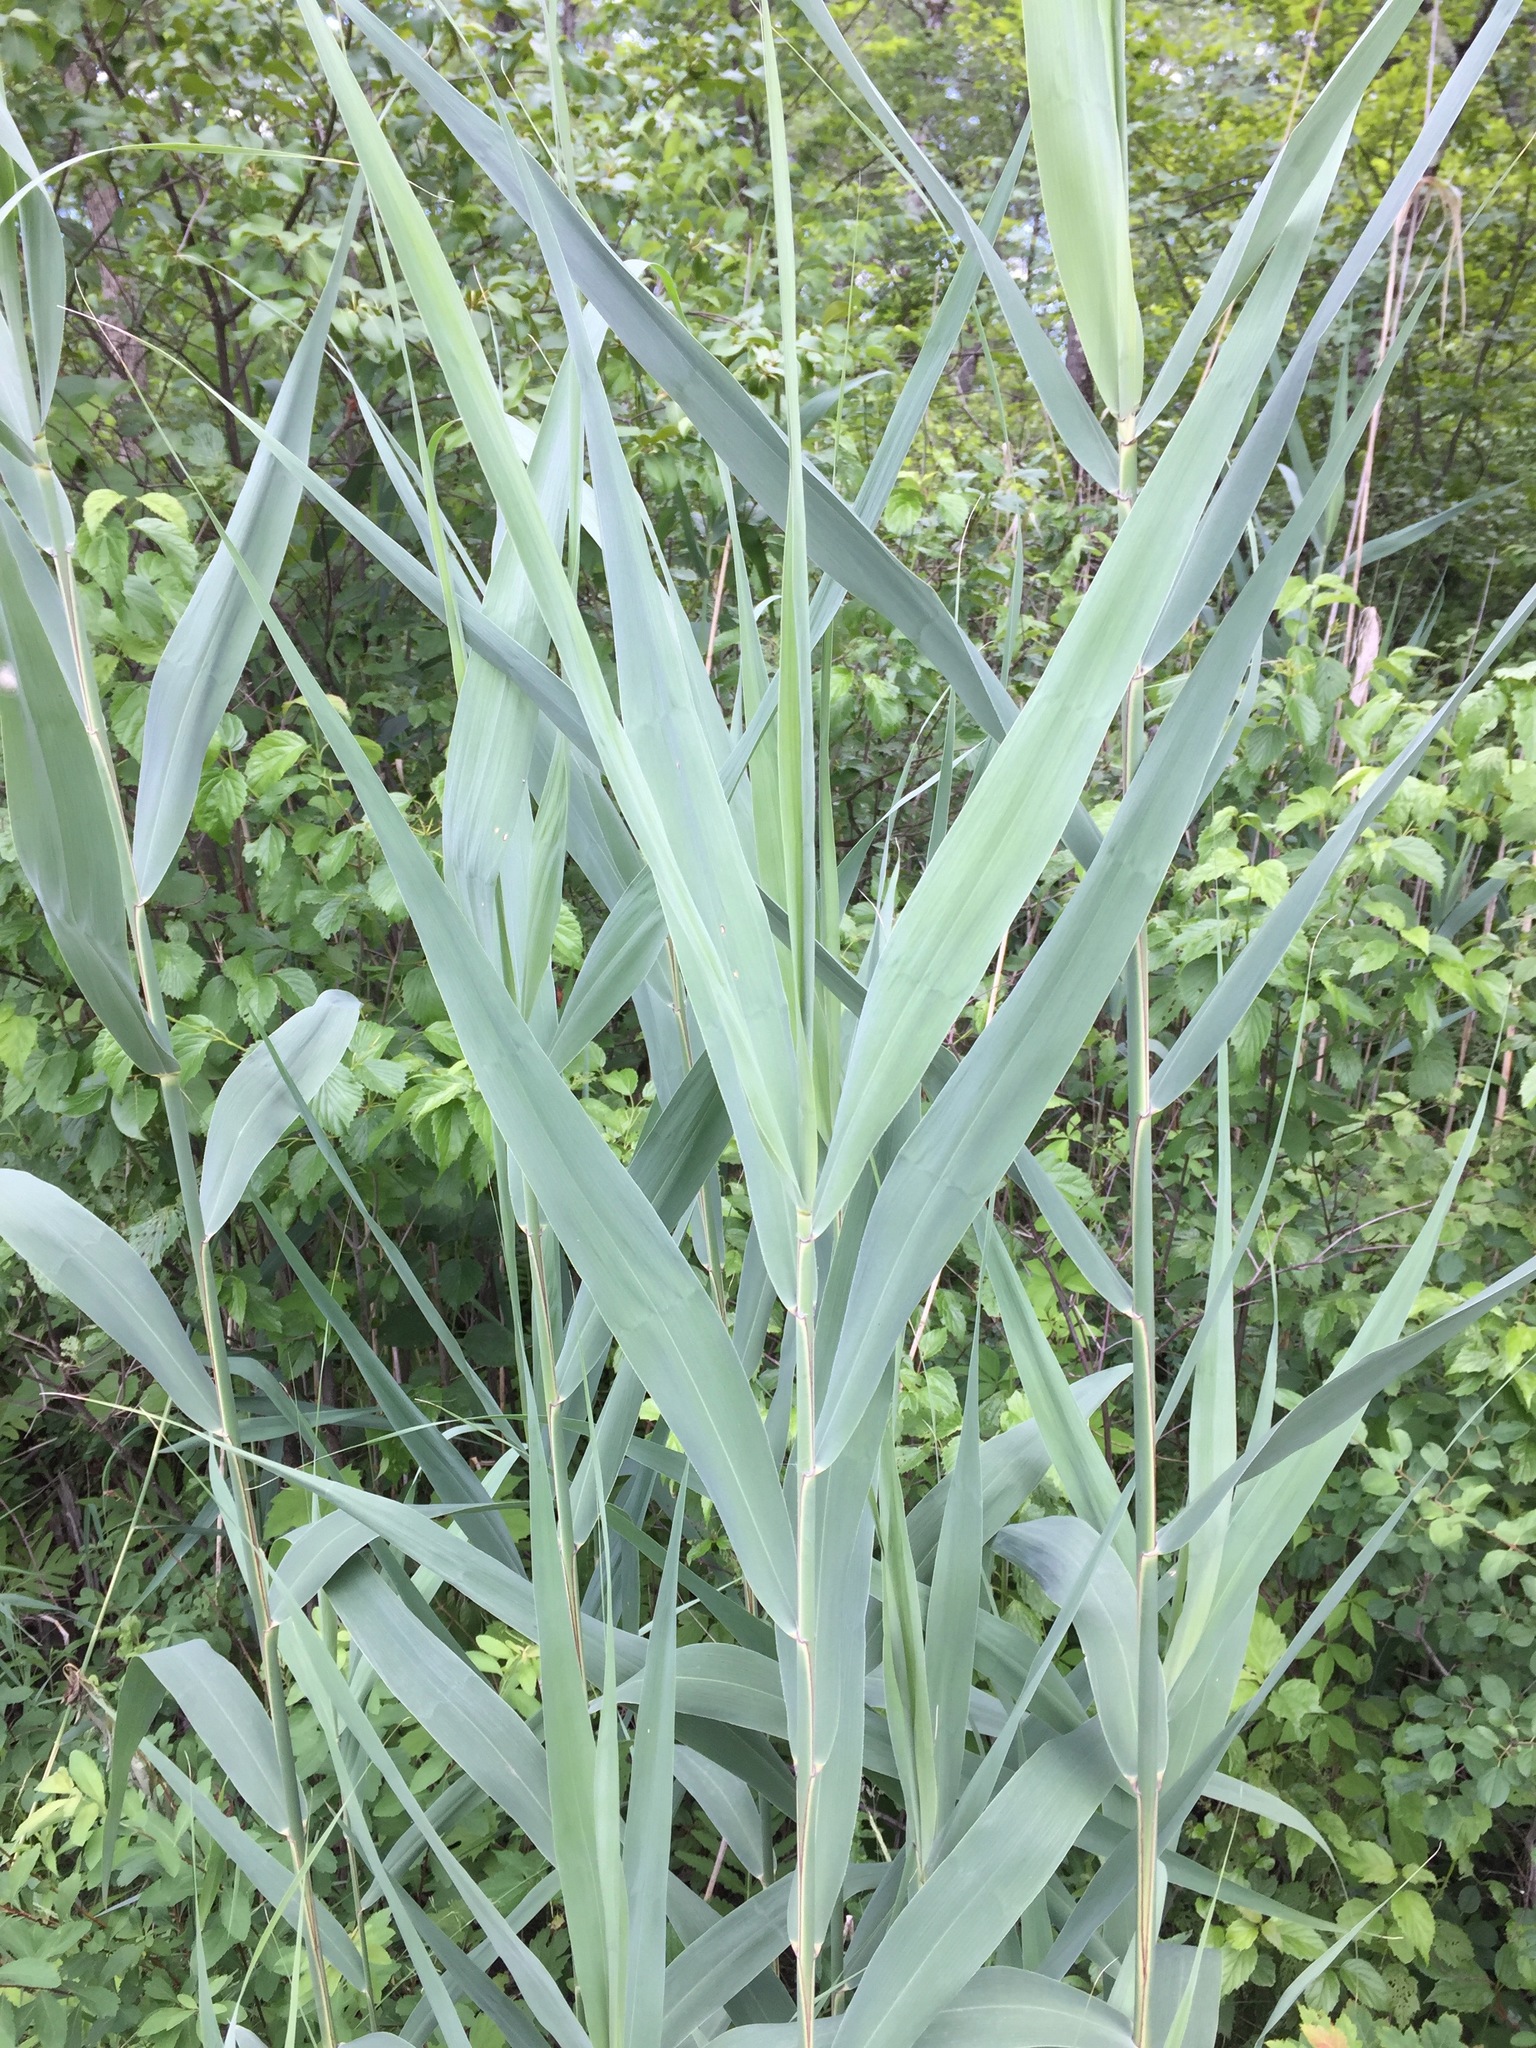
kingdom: Plantae
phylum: Tracheophyta
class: Liliopsida
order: Poales
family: Poaceae
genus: Phragmites
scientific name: Phragmites australis
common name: Common reed
